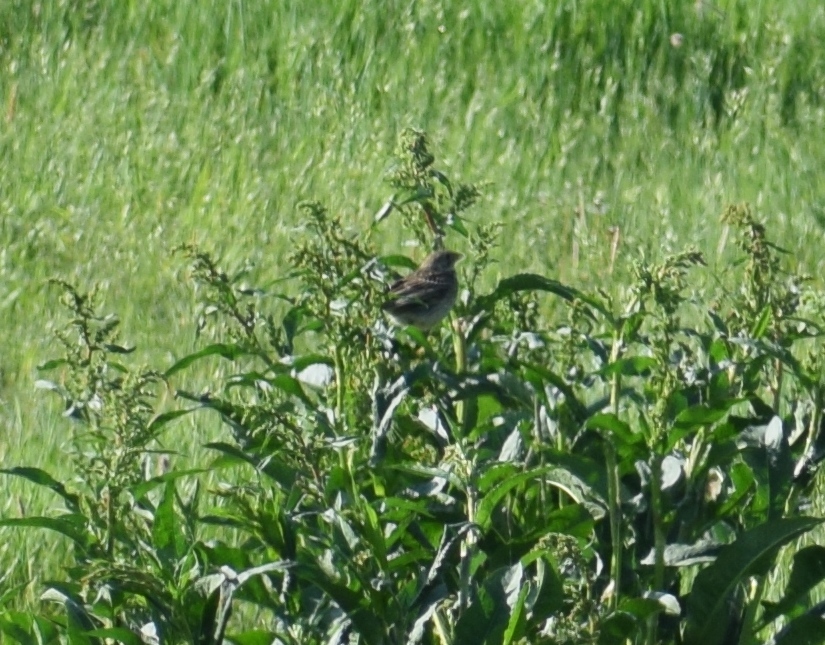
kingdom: Animalia
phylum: Chordata
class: Aves
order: Passeriformes
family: Emberizidae
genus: Emberiza
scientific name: Emberiza calandra
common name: Corn bunting
